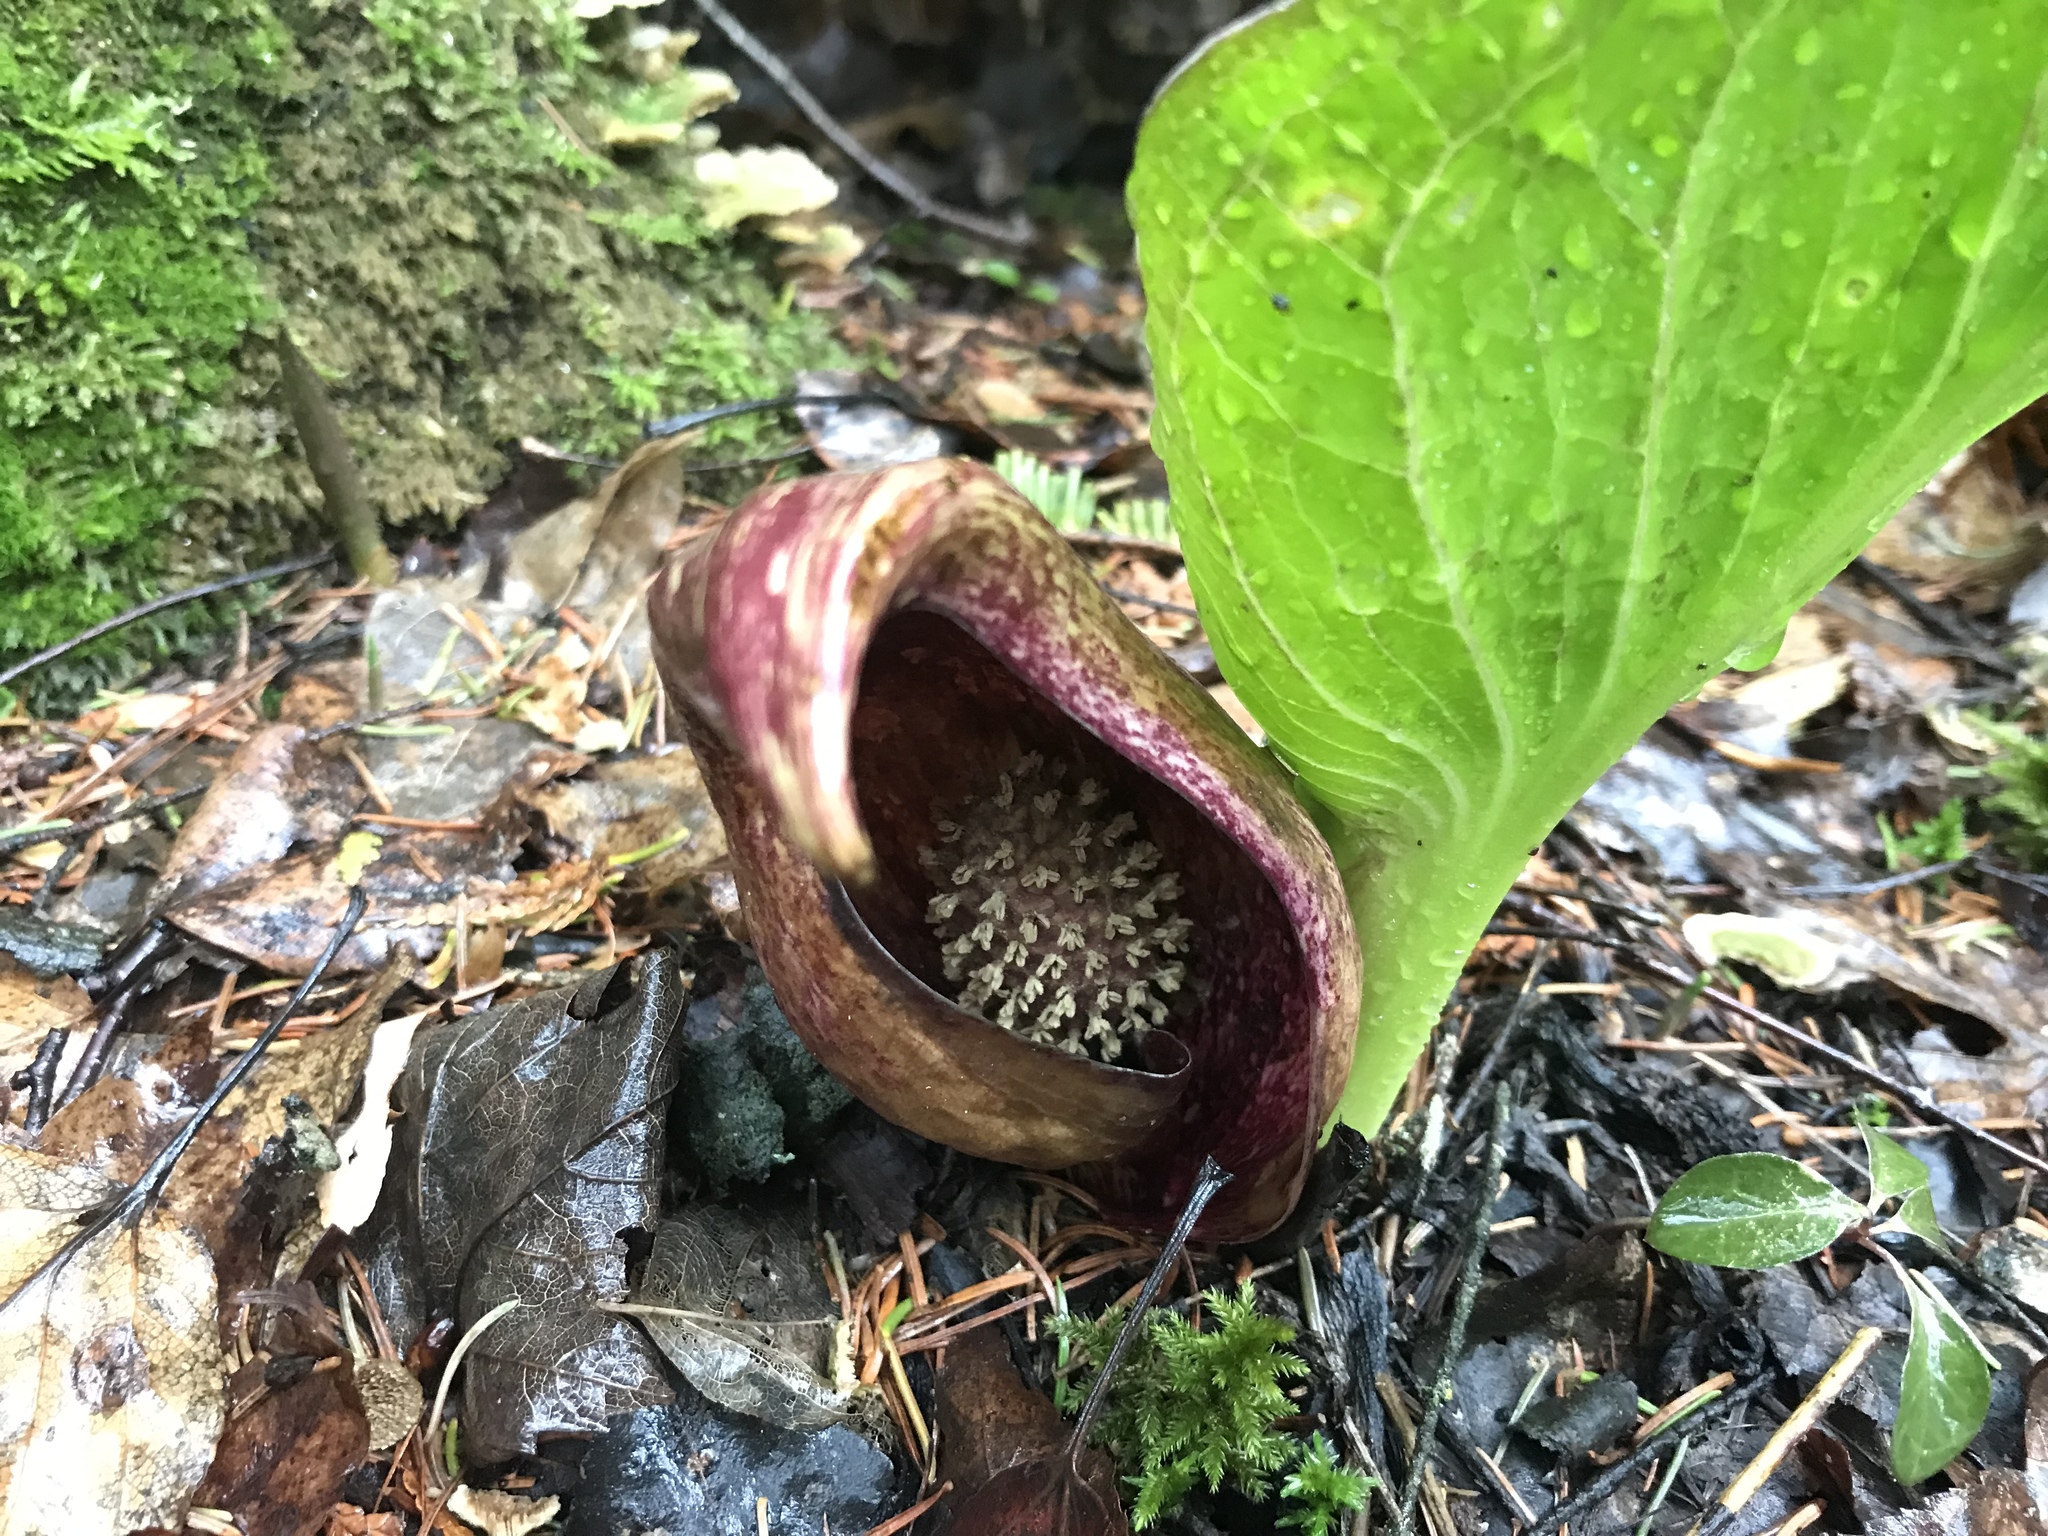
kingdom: Plantae
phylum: Tracheophyta
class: Liliopsida
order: Alismatales
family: Araceae
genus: Symplocarpus
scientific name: Symplocarpus foetidus
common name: Eastern skunk cabbage
